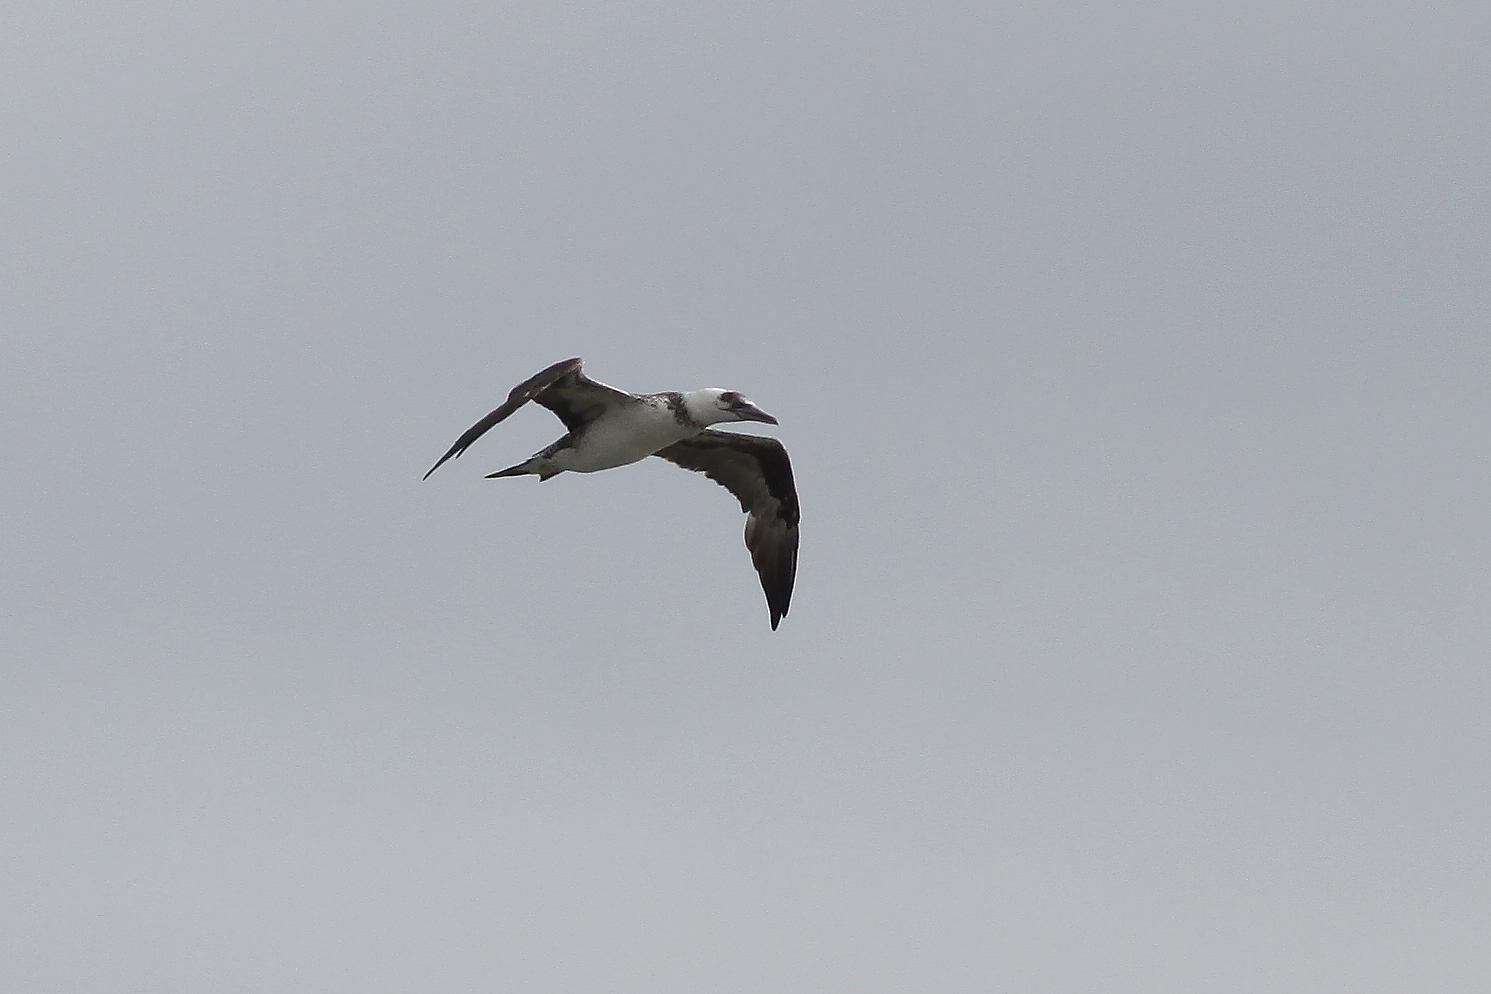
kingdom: Animalia
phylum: Chordata
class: Aves
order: Suliformes
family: Sulidae
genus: Morus
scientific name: Morus bassanus
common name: Northern gannet
